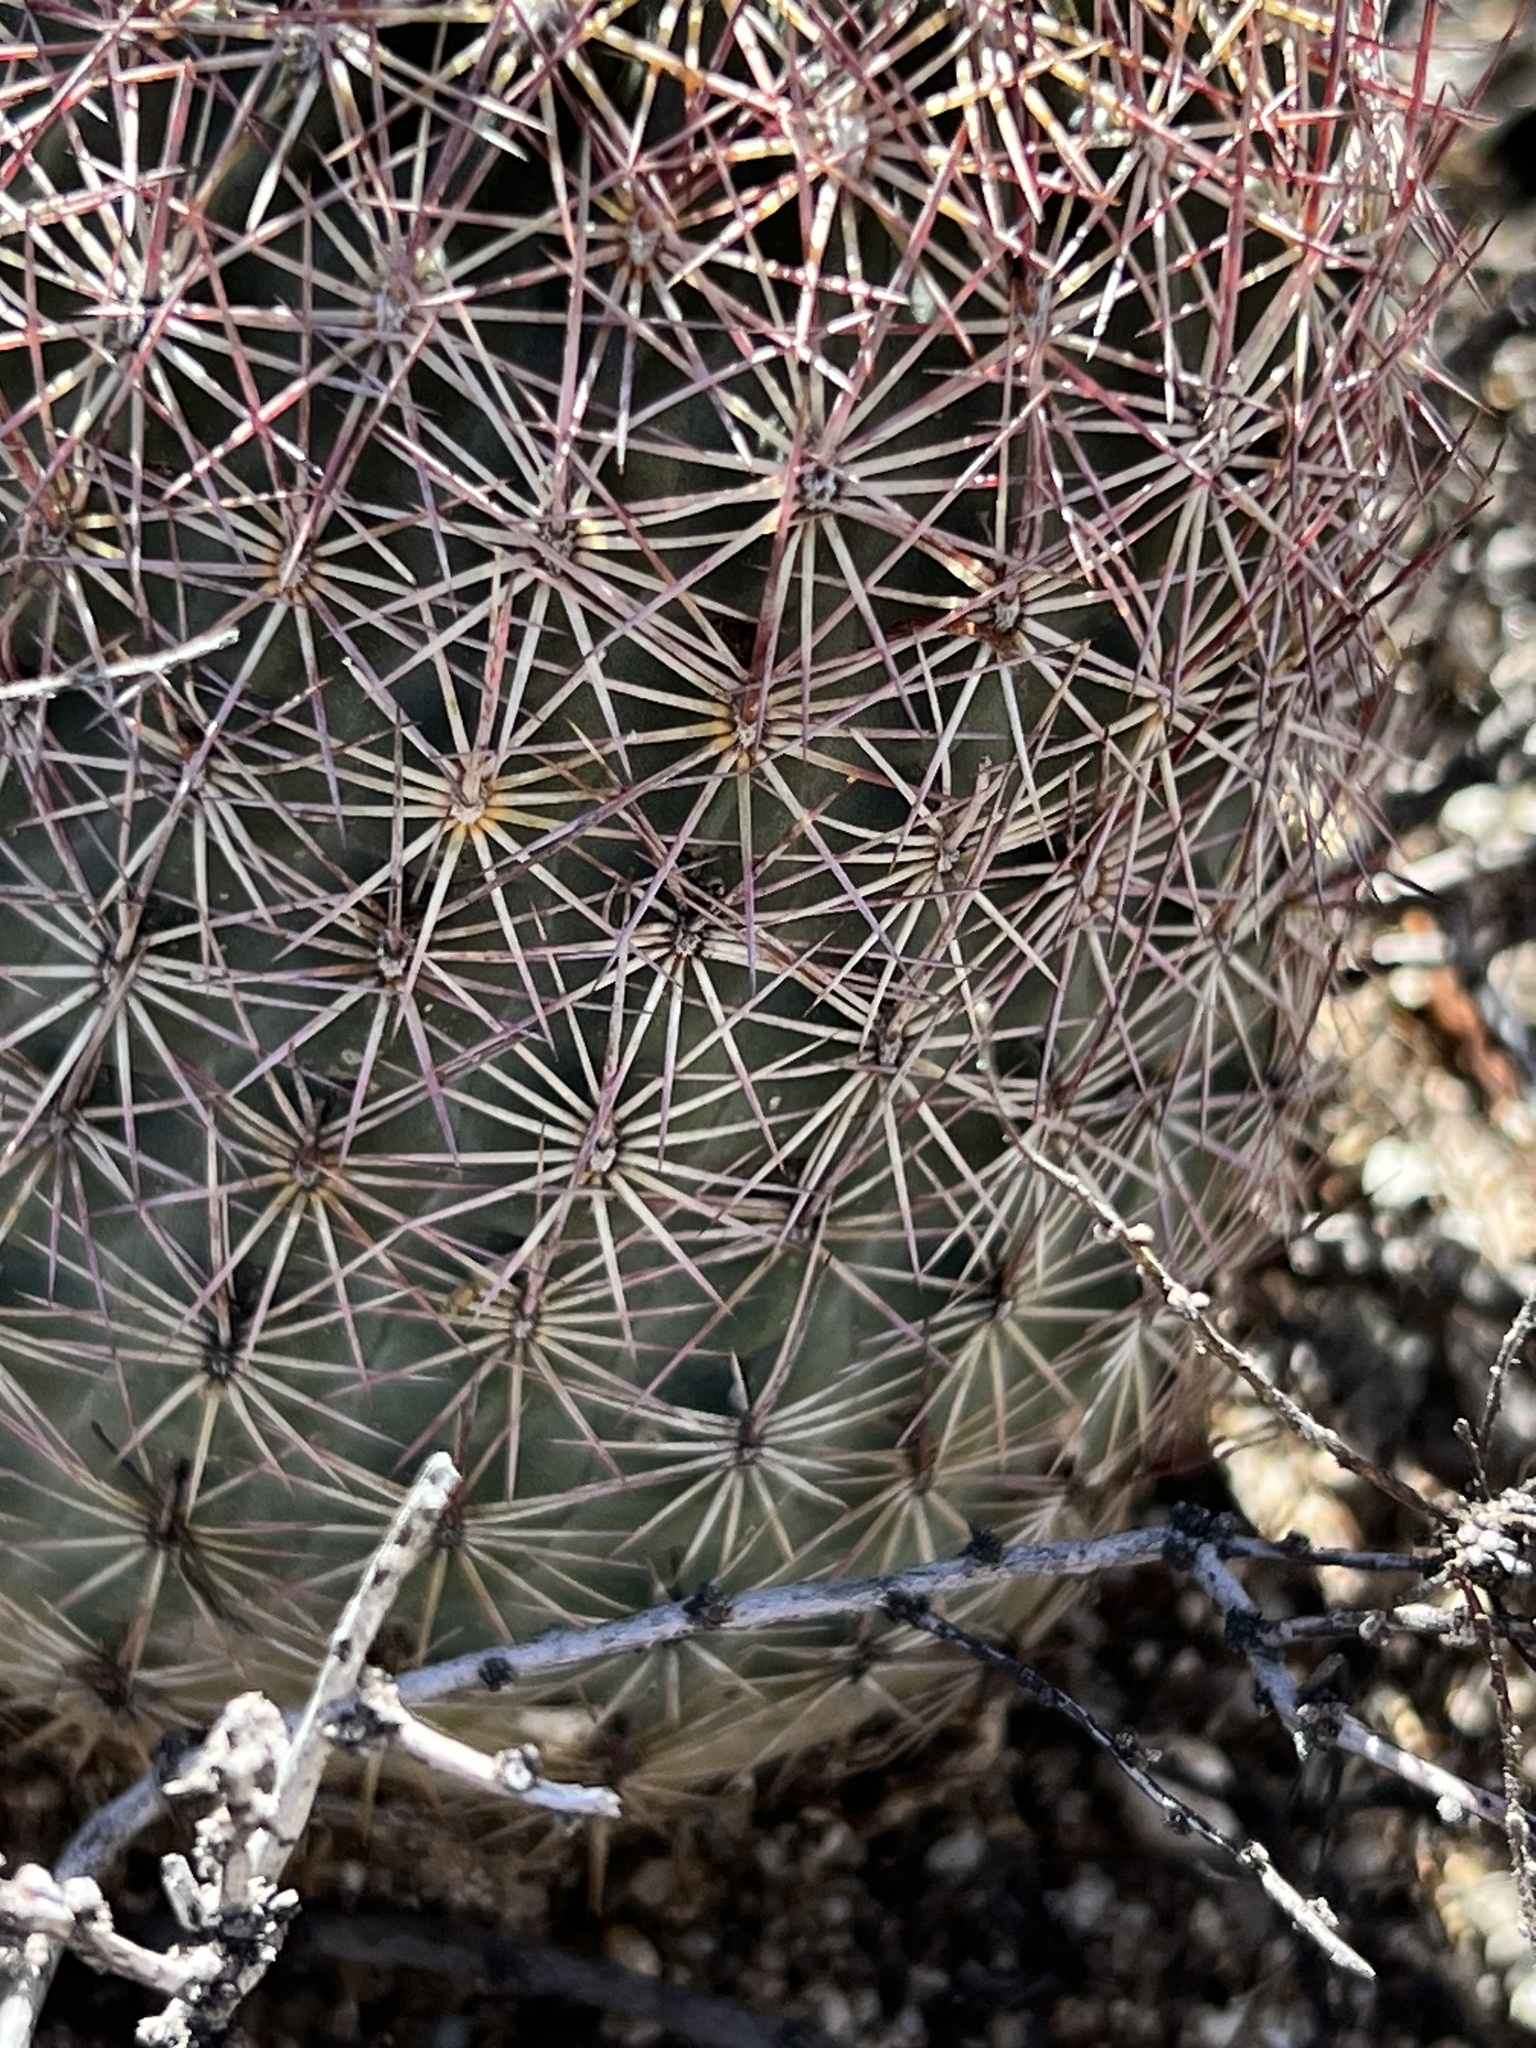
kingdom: Plantae
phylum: Tracheophyta
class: Magnoliopsida
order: Caryophyllales
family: Cactaceae
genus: Sclerocactus
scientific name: Sclerocactus johnsonii
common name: Eight-spine fishhook cactus
